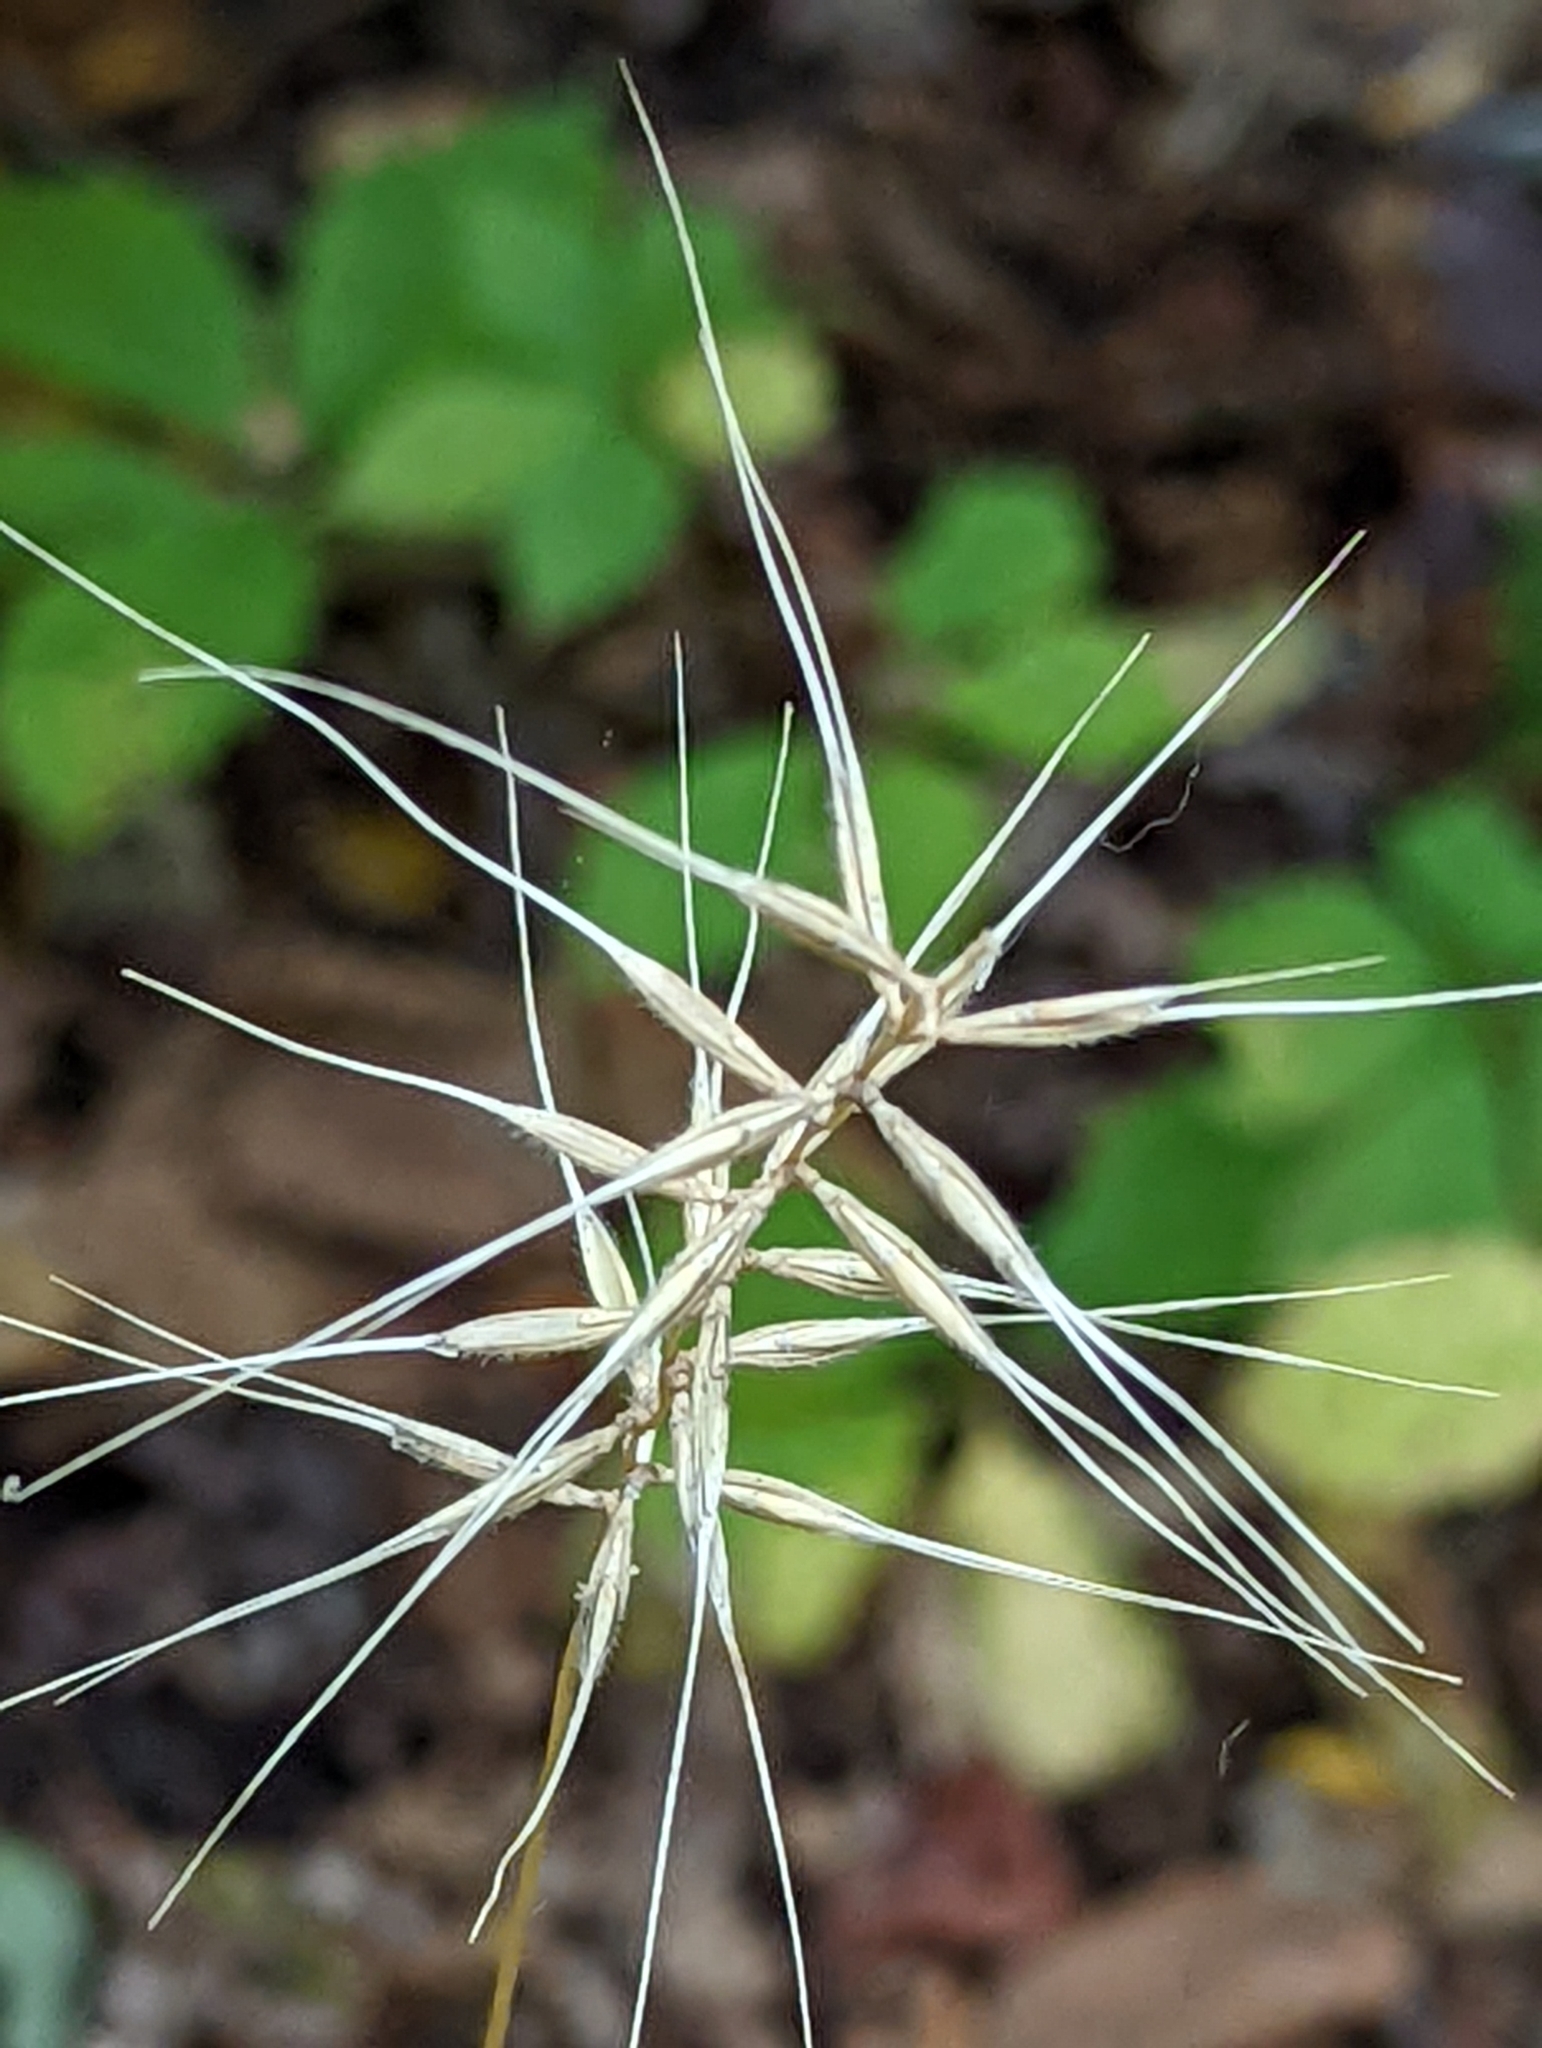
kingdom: Plantae
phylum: Tracheophyta
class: Liliopsida
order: Poales
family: Poaceae
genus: Elymus
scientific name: Elymus hystrix
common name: Bottlebrush grass
